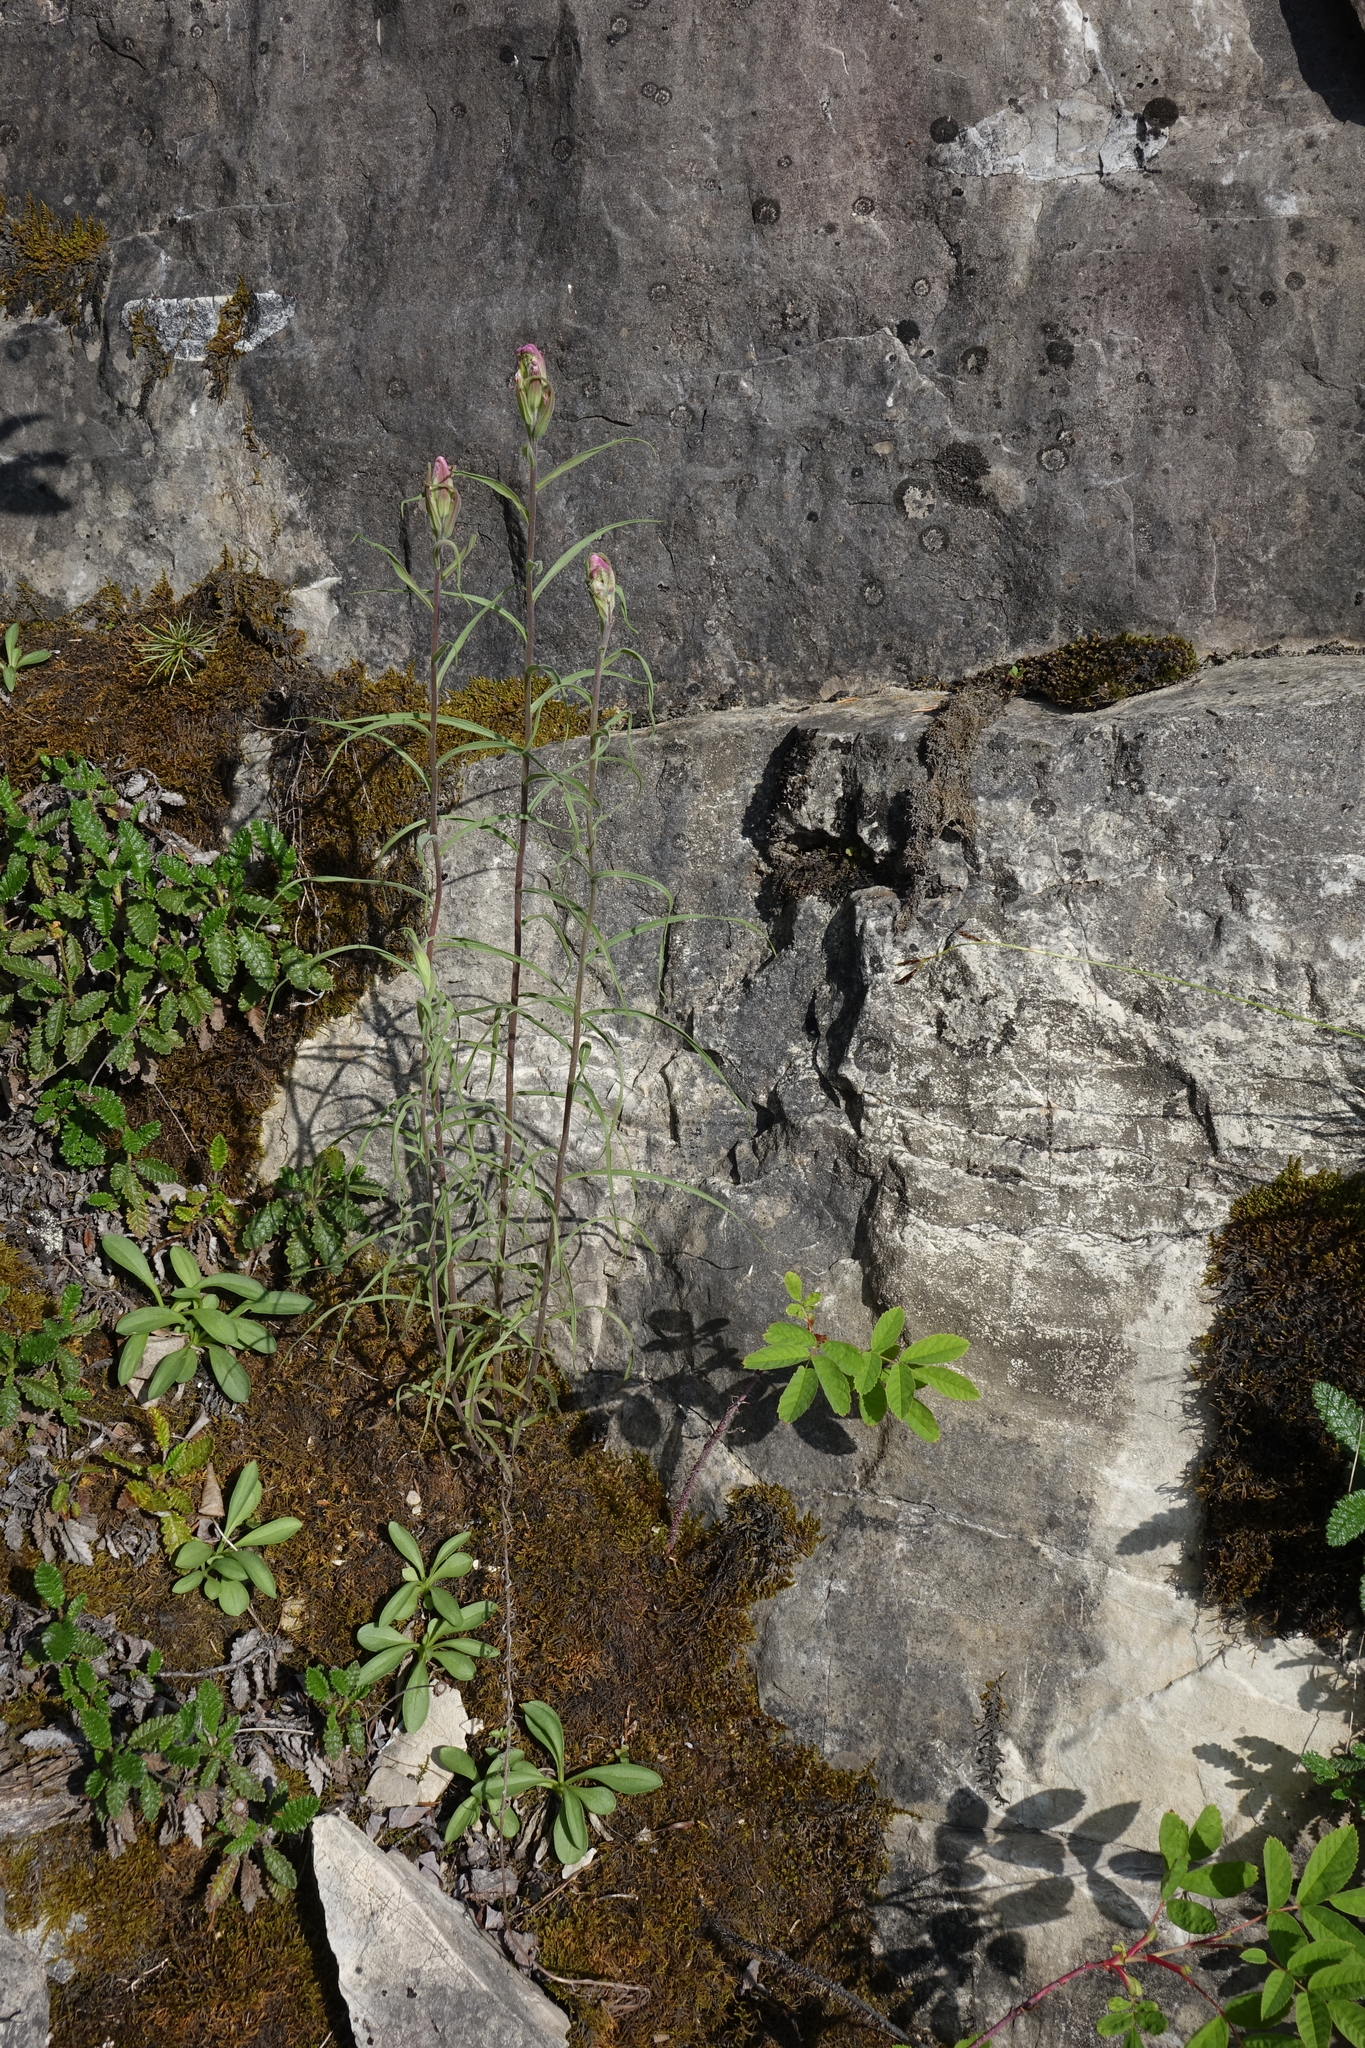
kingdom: Plantae
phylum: Tracheophyta
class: Magnoliopsida
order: Lamiales
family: Orobanchaceae
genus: Castilleja
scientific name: Castilleja rubra
